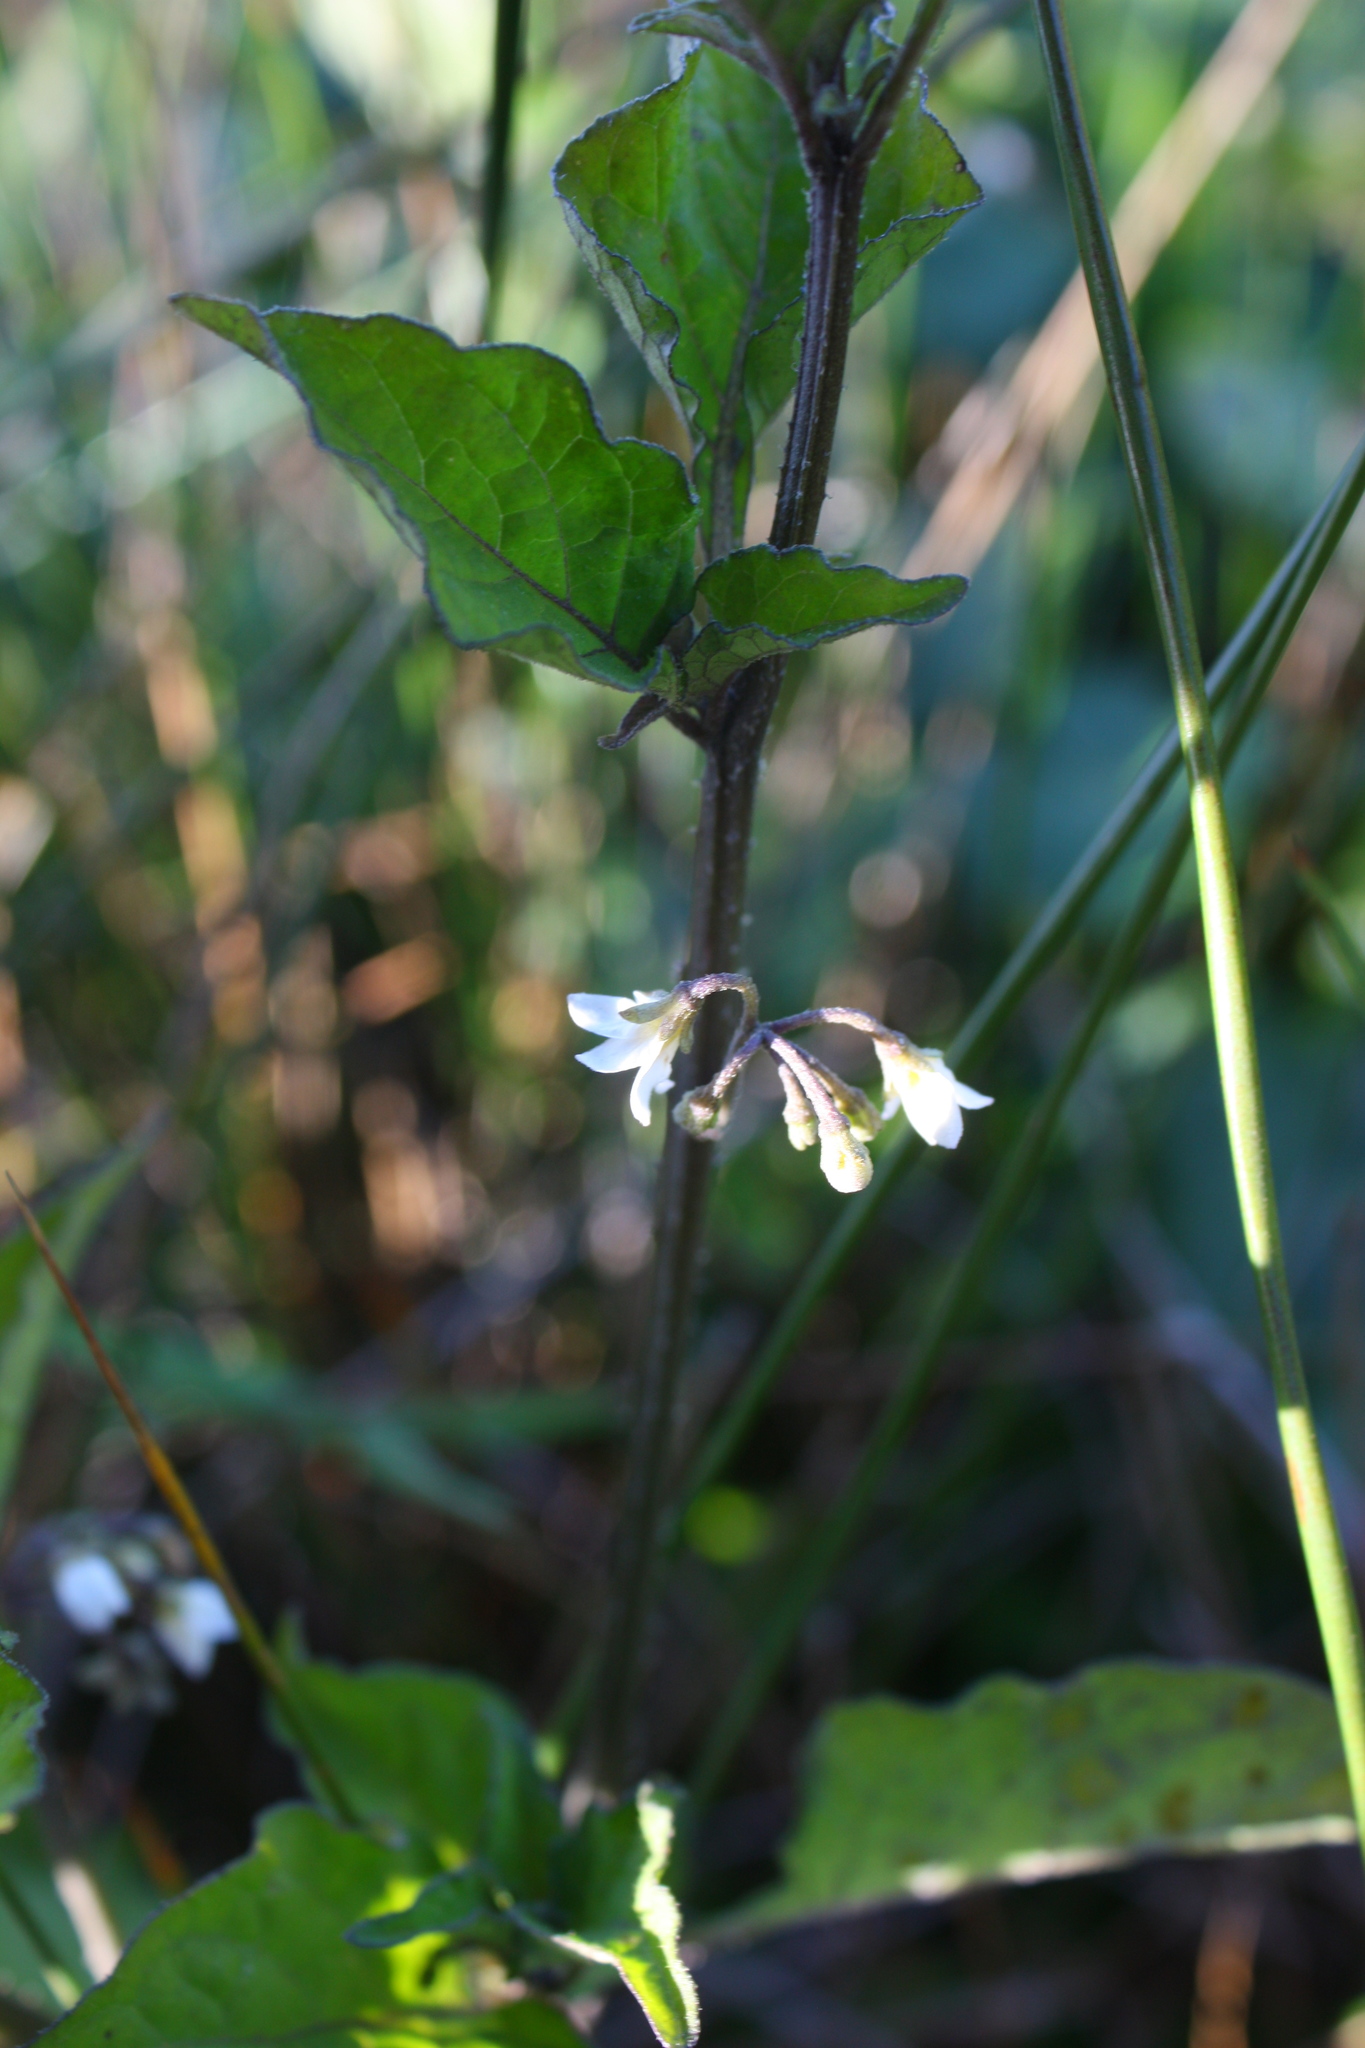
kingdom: Plantae
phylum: Tracheophyta
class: Magnoliopsida
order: Solanales
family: Solanaceae
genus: Solanum
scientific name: Solanum
